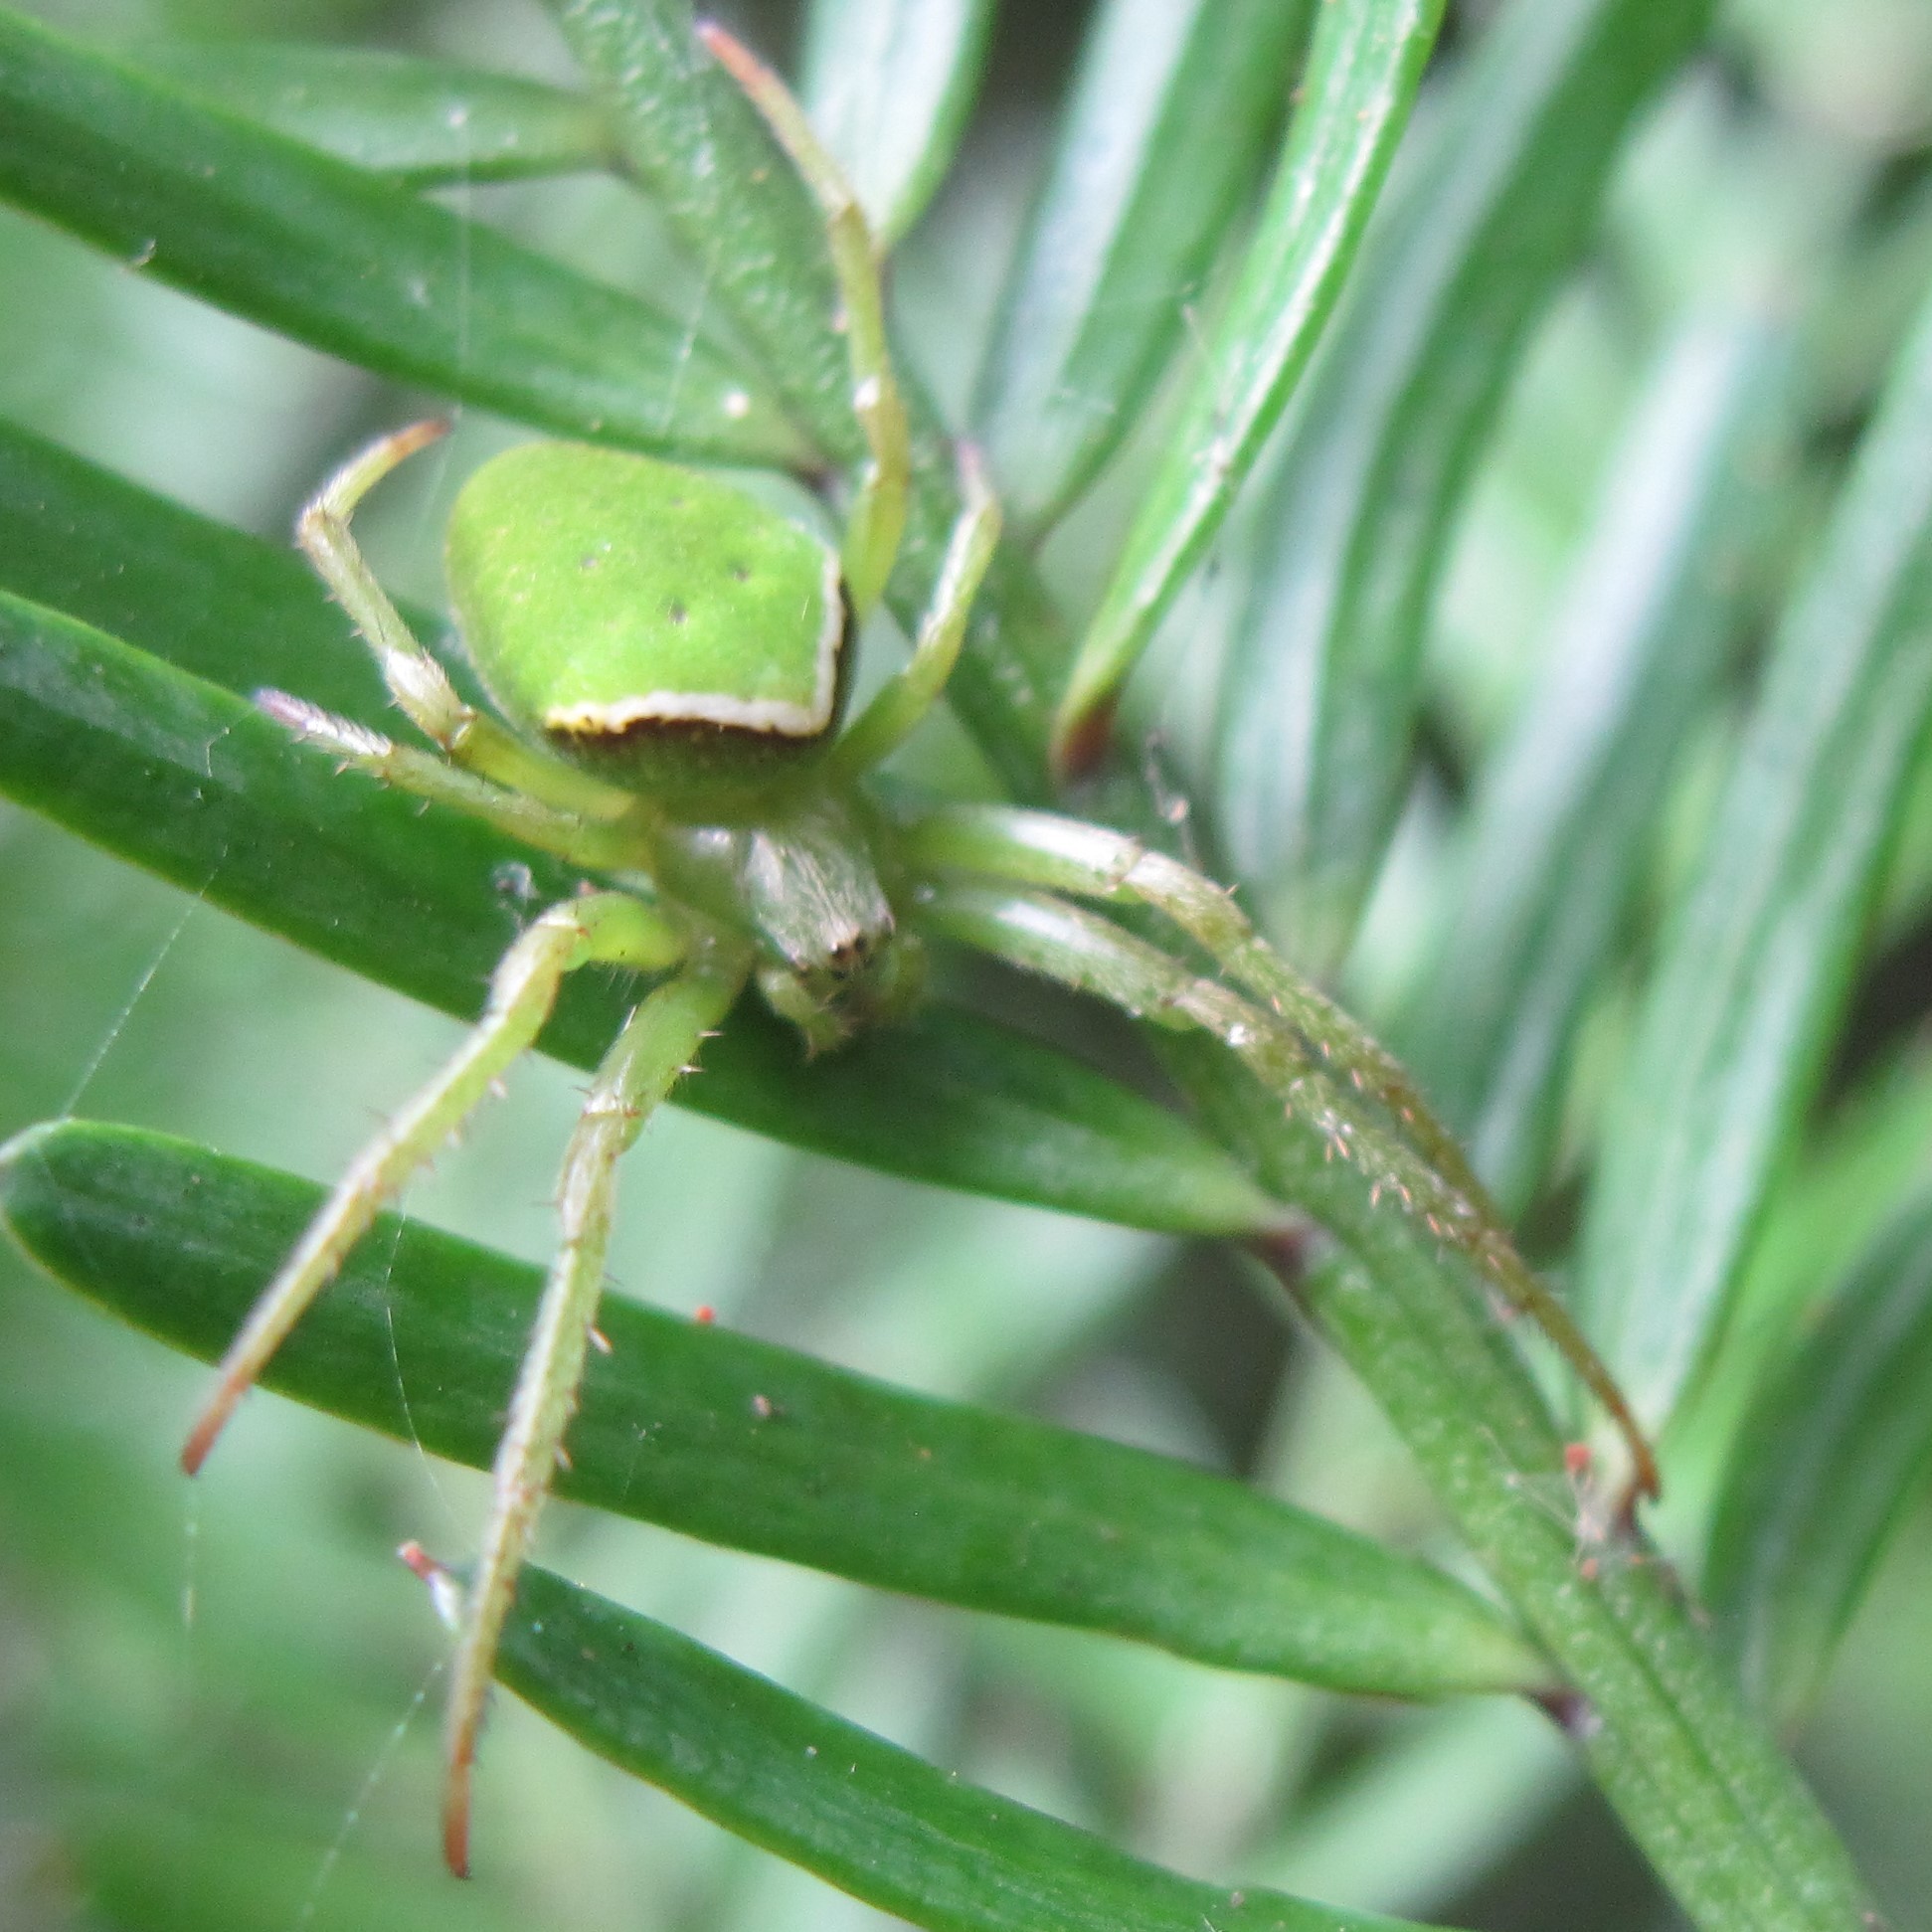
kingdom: Animalia
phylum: Arthropoda
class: Arachnida
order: Araneae
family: Araneidae
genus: Colaranea
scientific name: Colaranea viriditas
